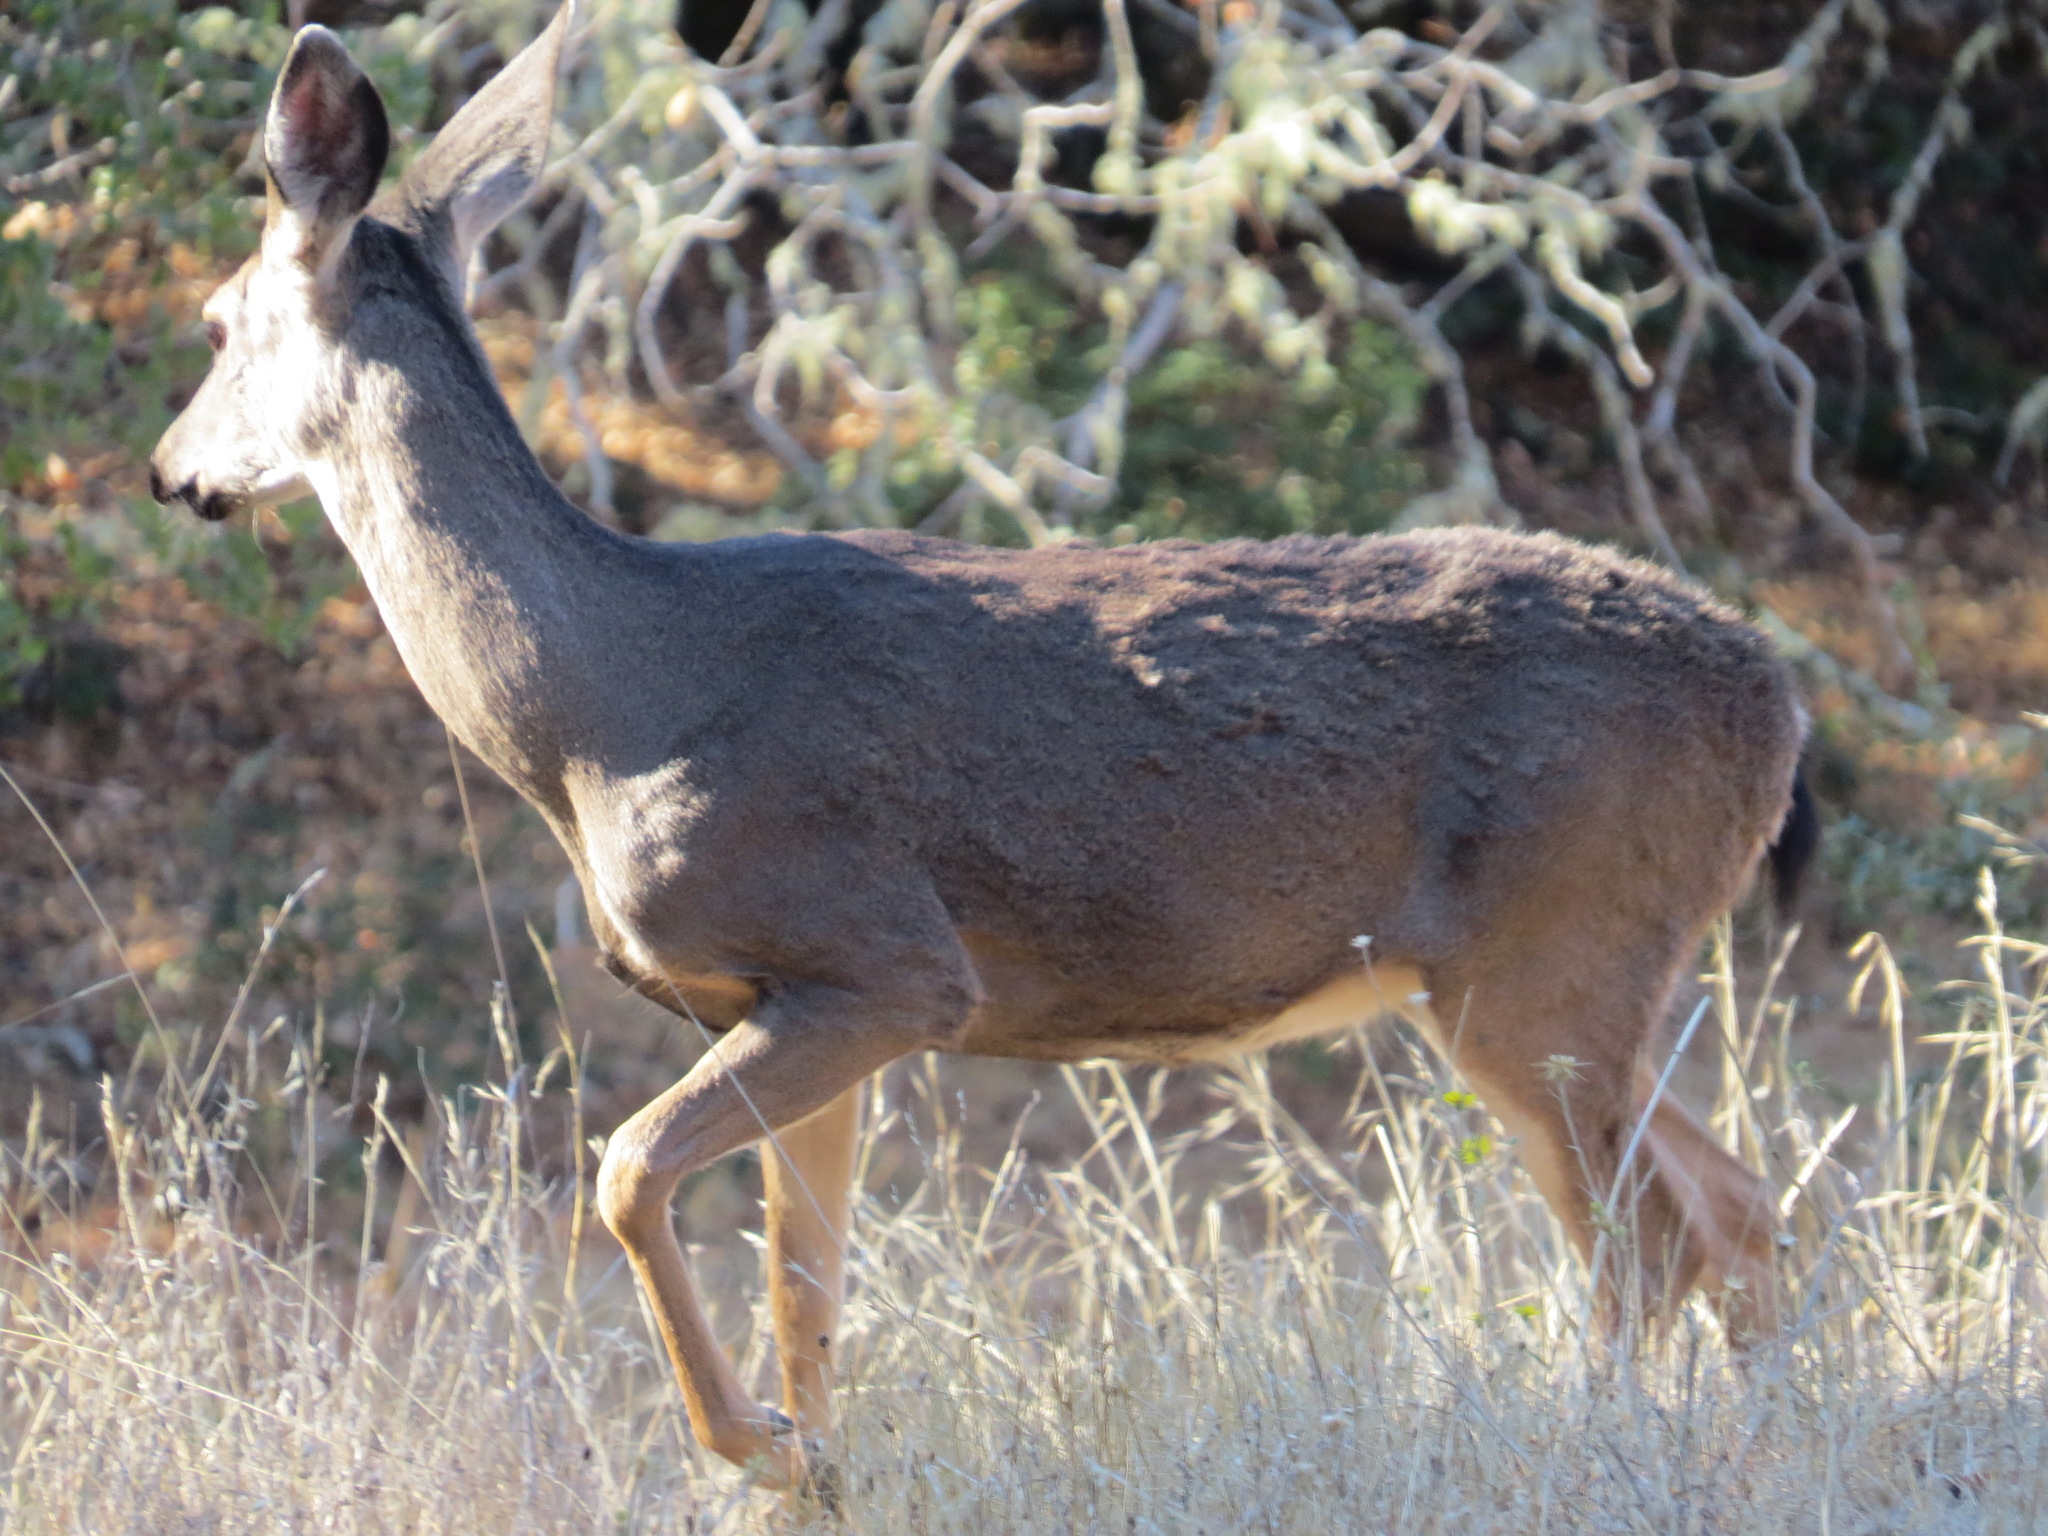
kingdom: Animalia
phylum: Chordata
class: Mammalia
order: Artiodactyla
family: Cervidae
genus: Odocoileus
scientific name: Odocoileus hemionus
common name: Mule deer
